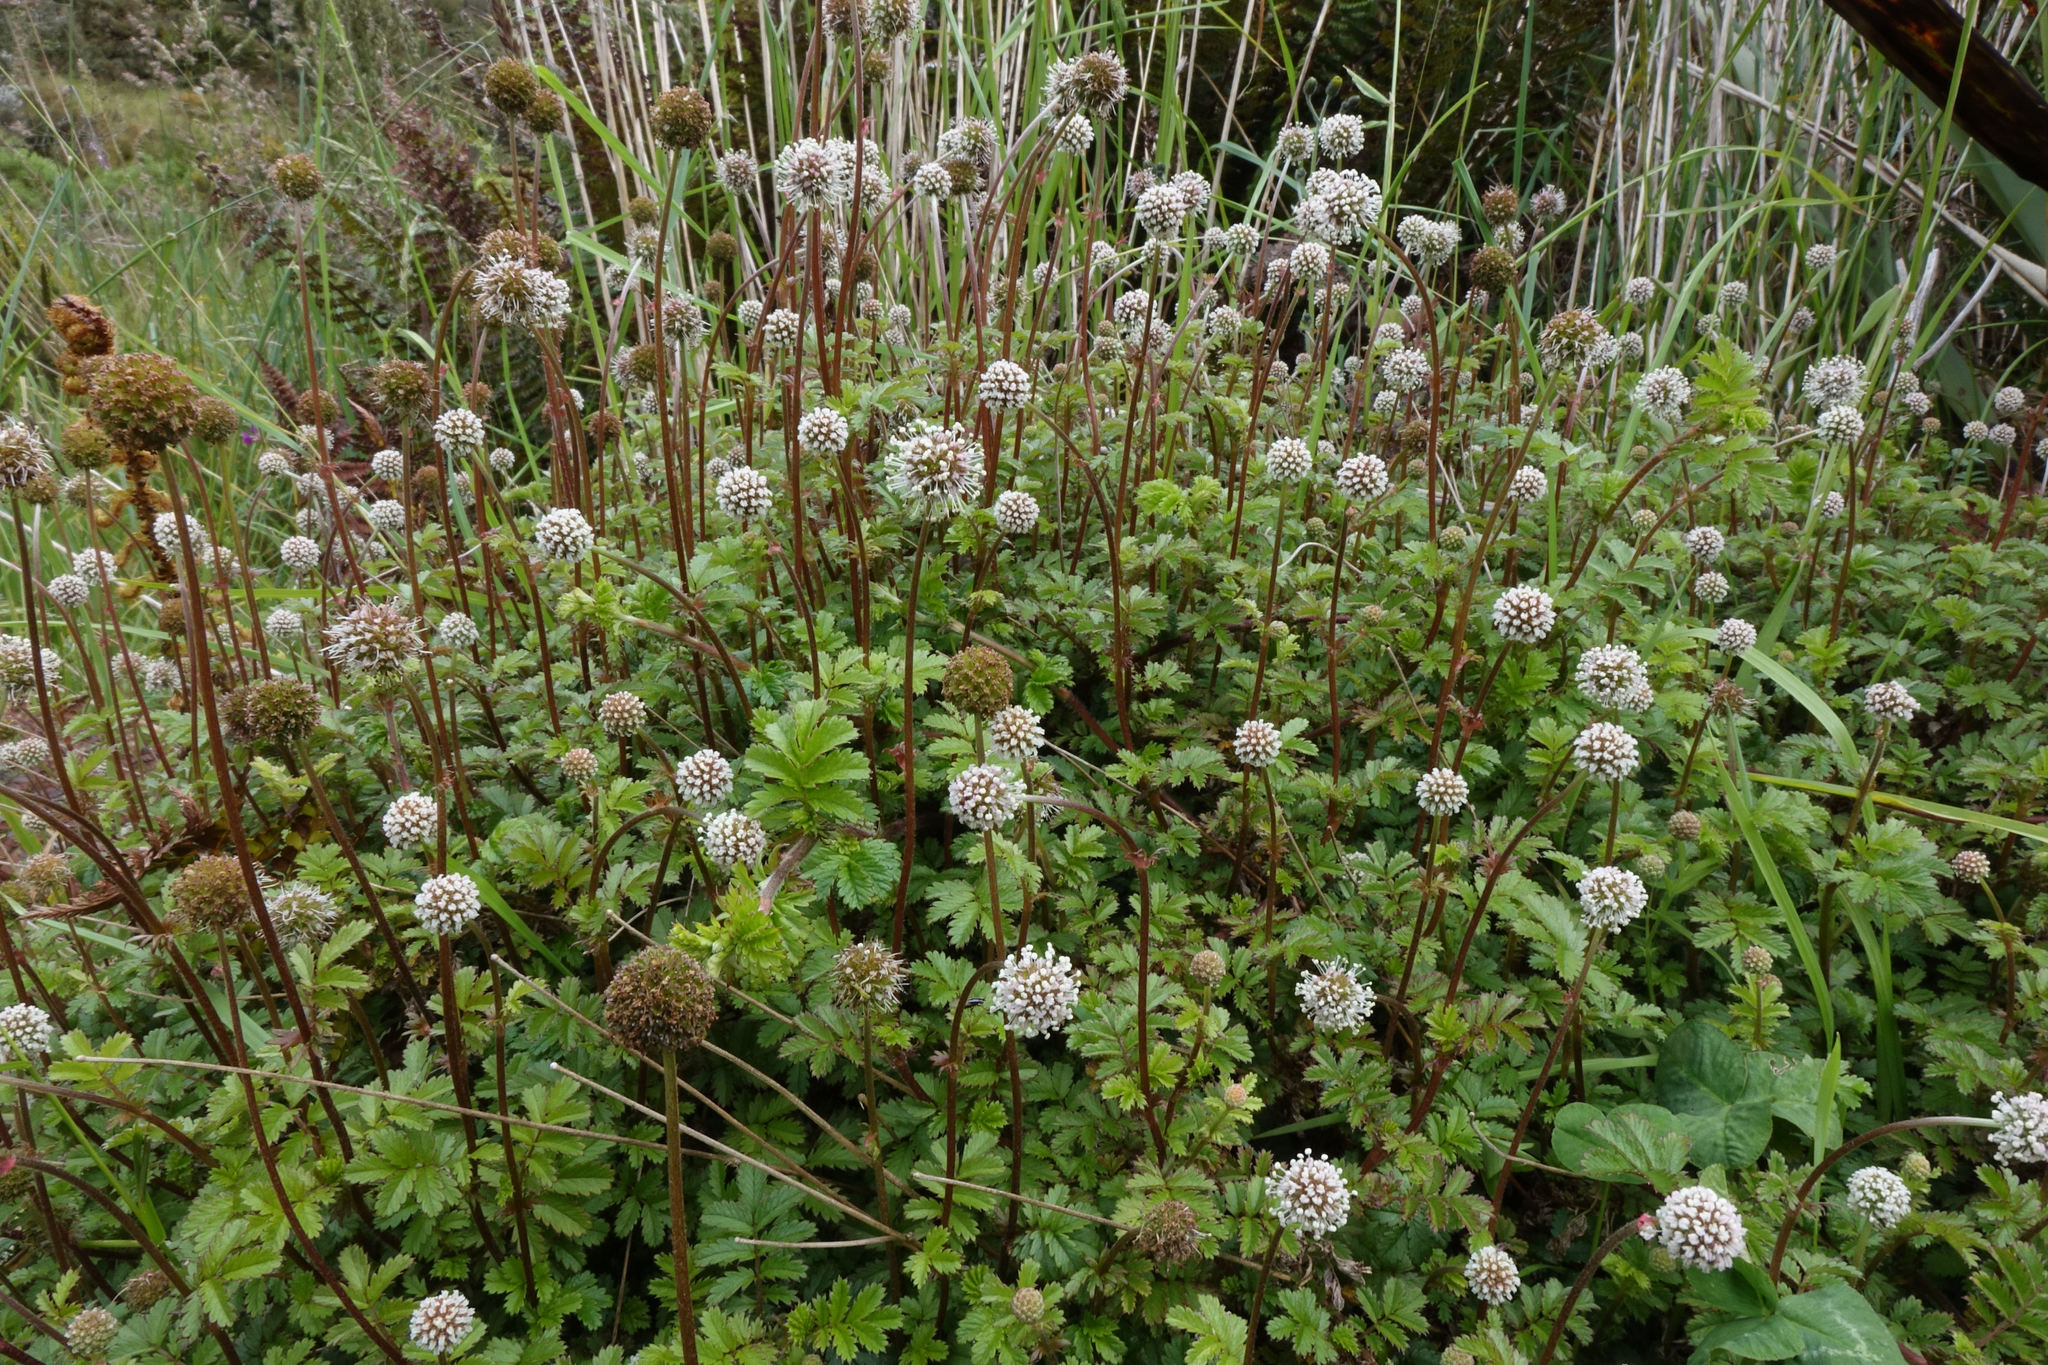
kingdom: Plantae
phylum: Tracheophyta
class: Magnoliopsida
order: Rosales
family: Rosaceae
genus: Acaena
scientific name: Acaena anserinifolia
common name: Bronze pirri-pirri-bur
